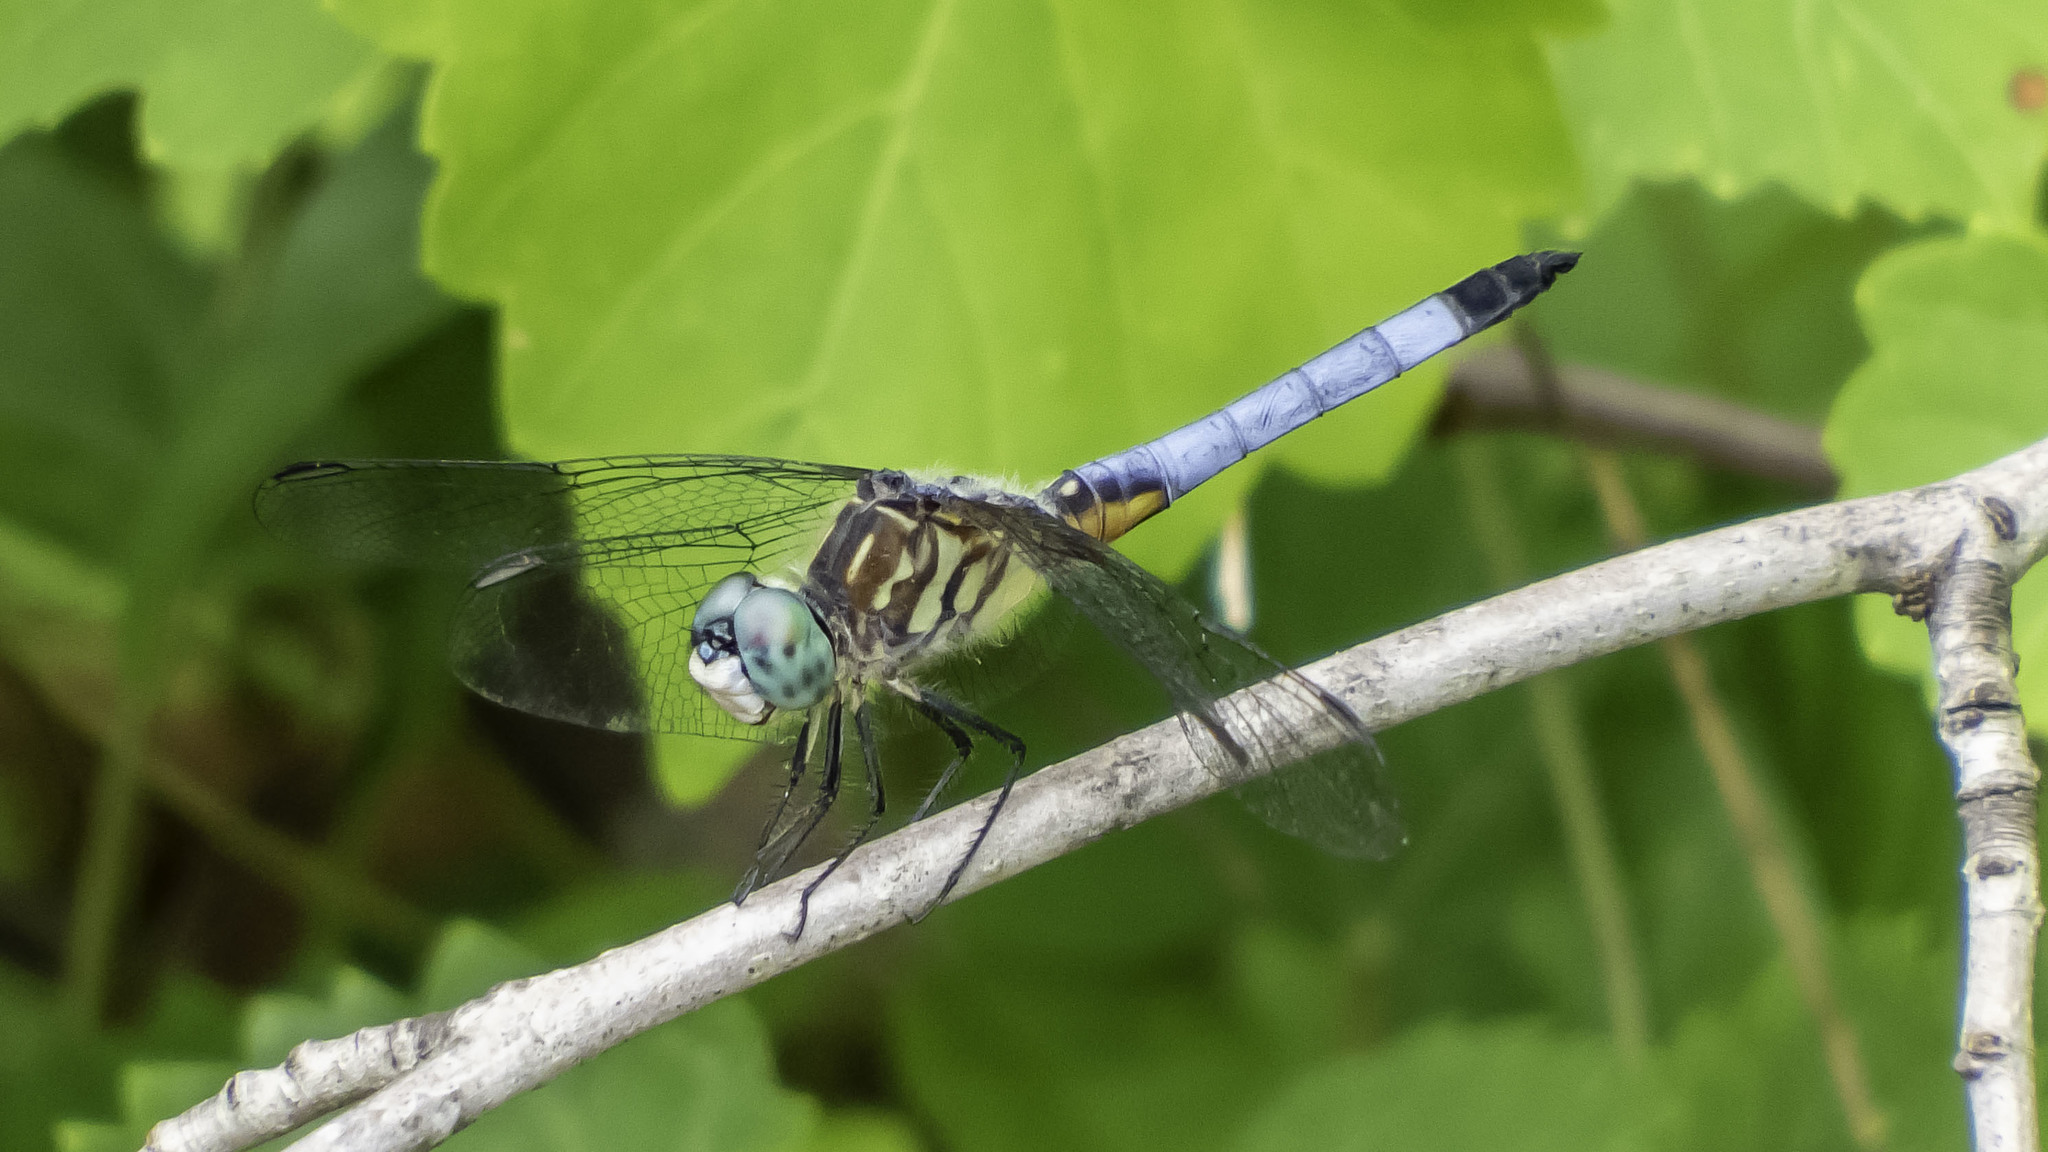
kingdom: Animalia
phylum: Arthropoda
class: Insecta
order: Odonata
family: Libellulidae
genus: Pachydiplax
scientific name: Pachydiplax longipennis
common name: Blue dasher
